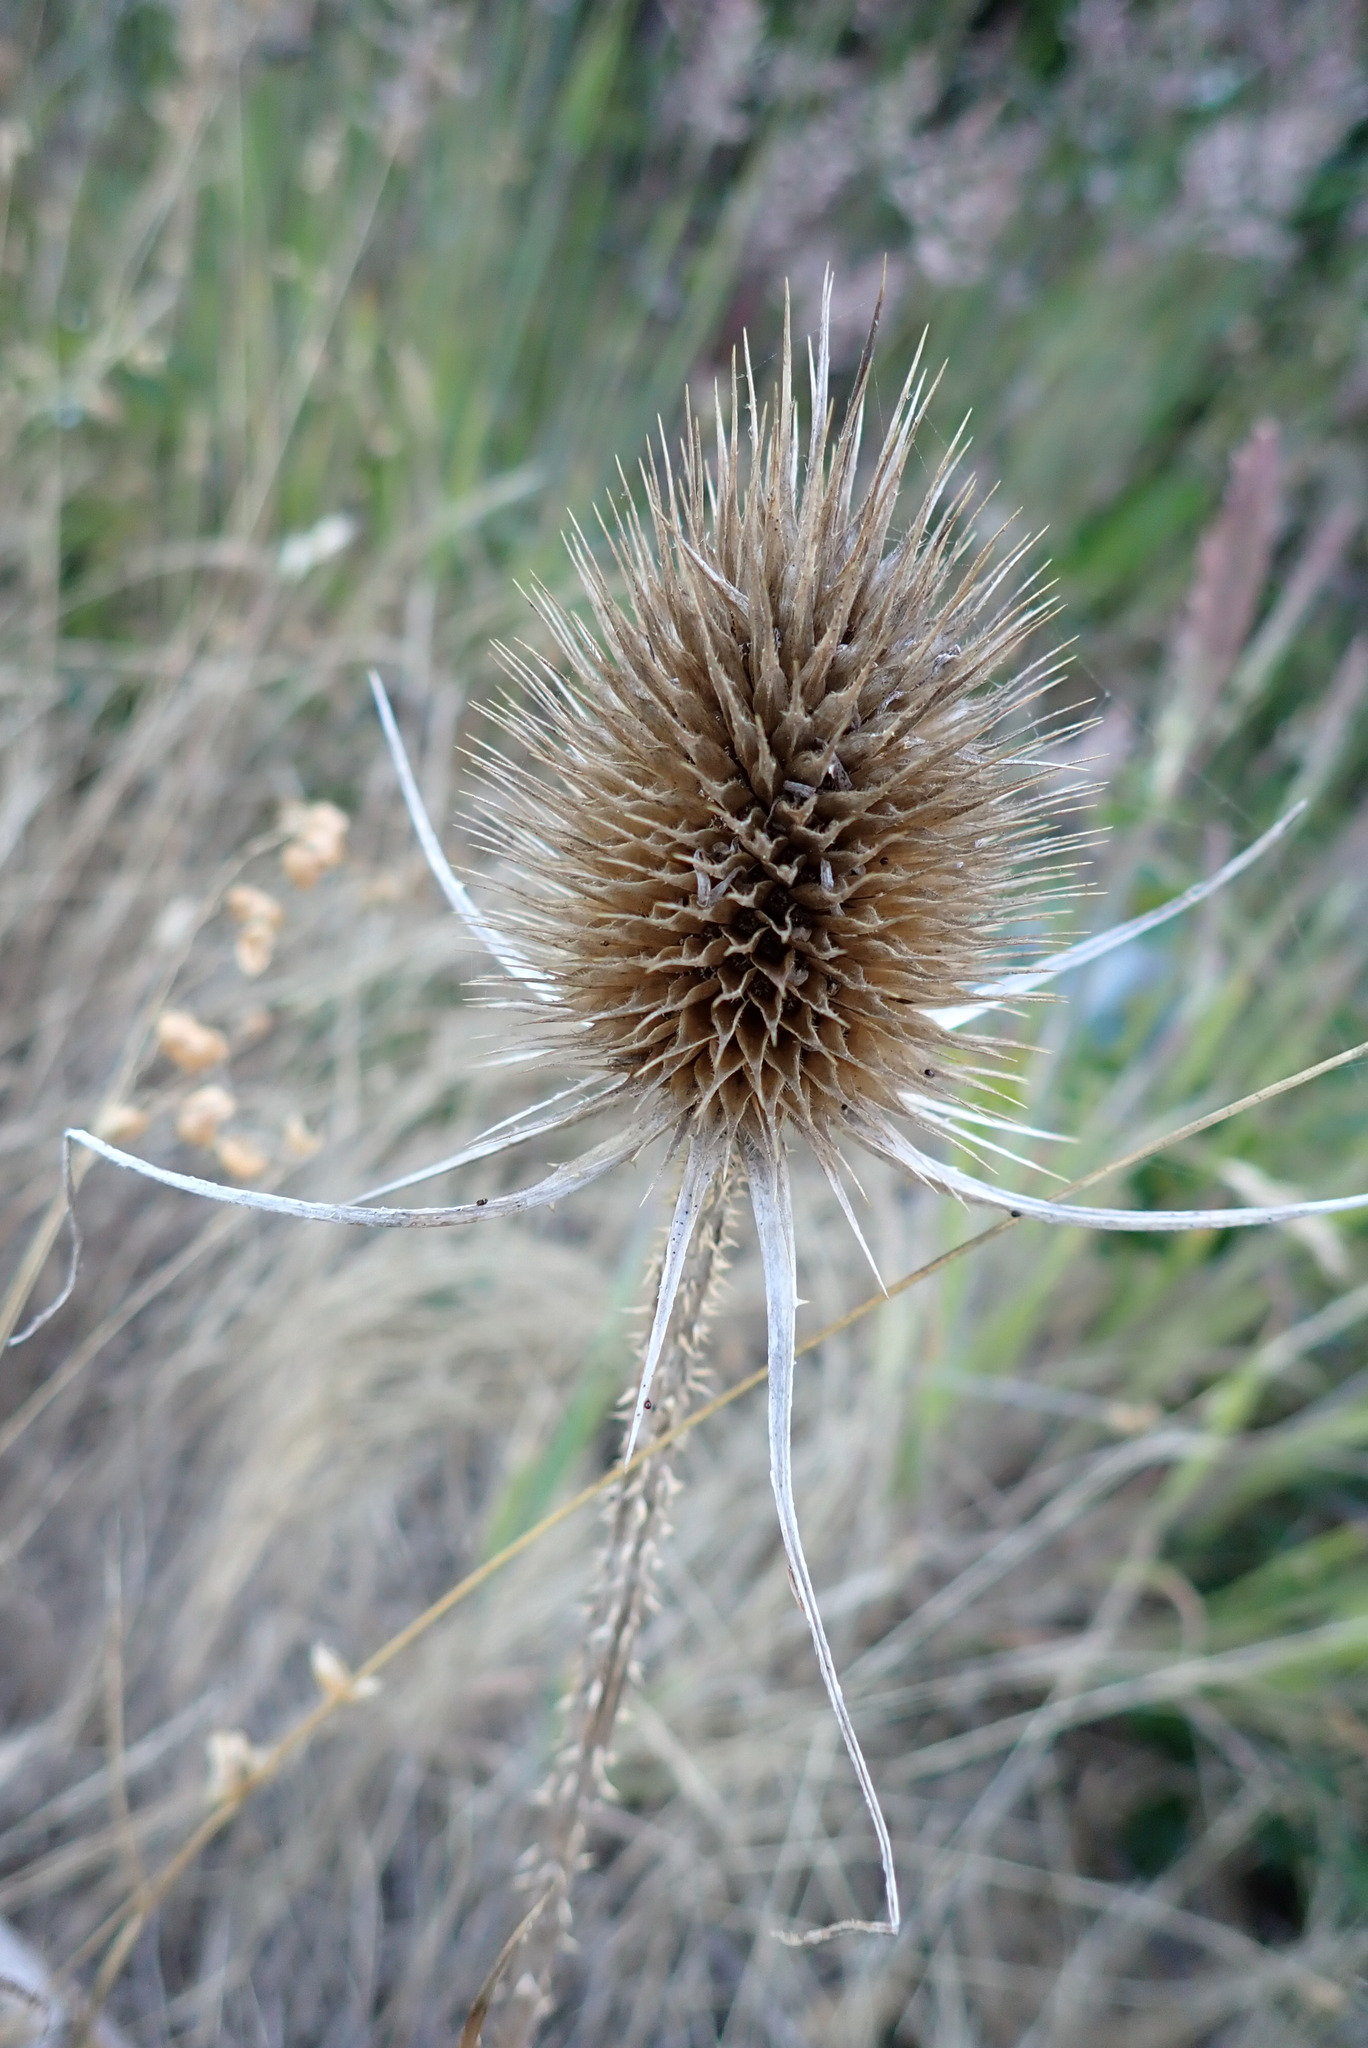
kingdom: Plantae
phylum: Tracheophyta
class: Magnoliopsida
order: Dipsacales
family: Caprifoliaceae
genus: Dipsacus
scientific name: Dipsacus fullonum
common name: Teasel
